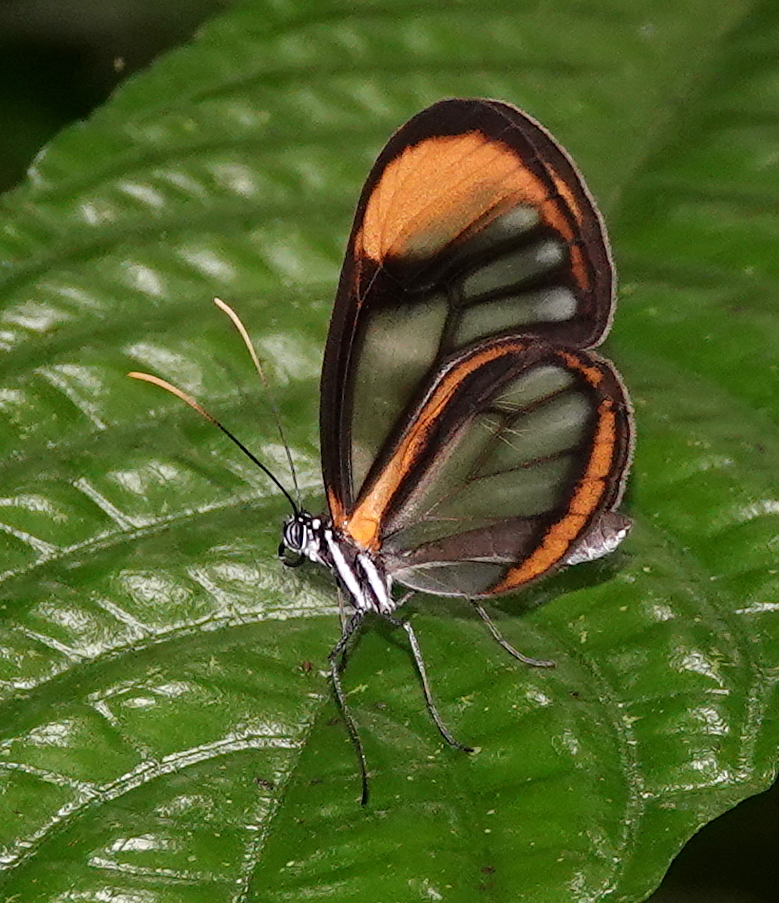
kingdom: Animalia
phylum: Arthropoda
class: Insecta
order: Lepidoptera
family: Nymphalidae
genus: Hypoleria
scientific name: Hypoleria lavinia
